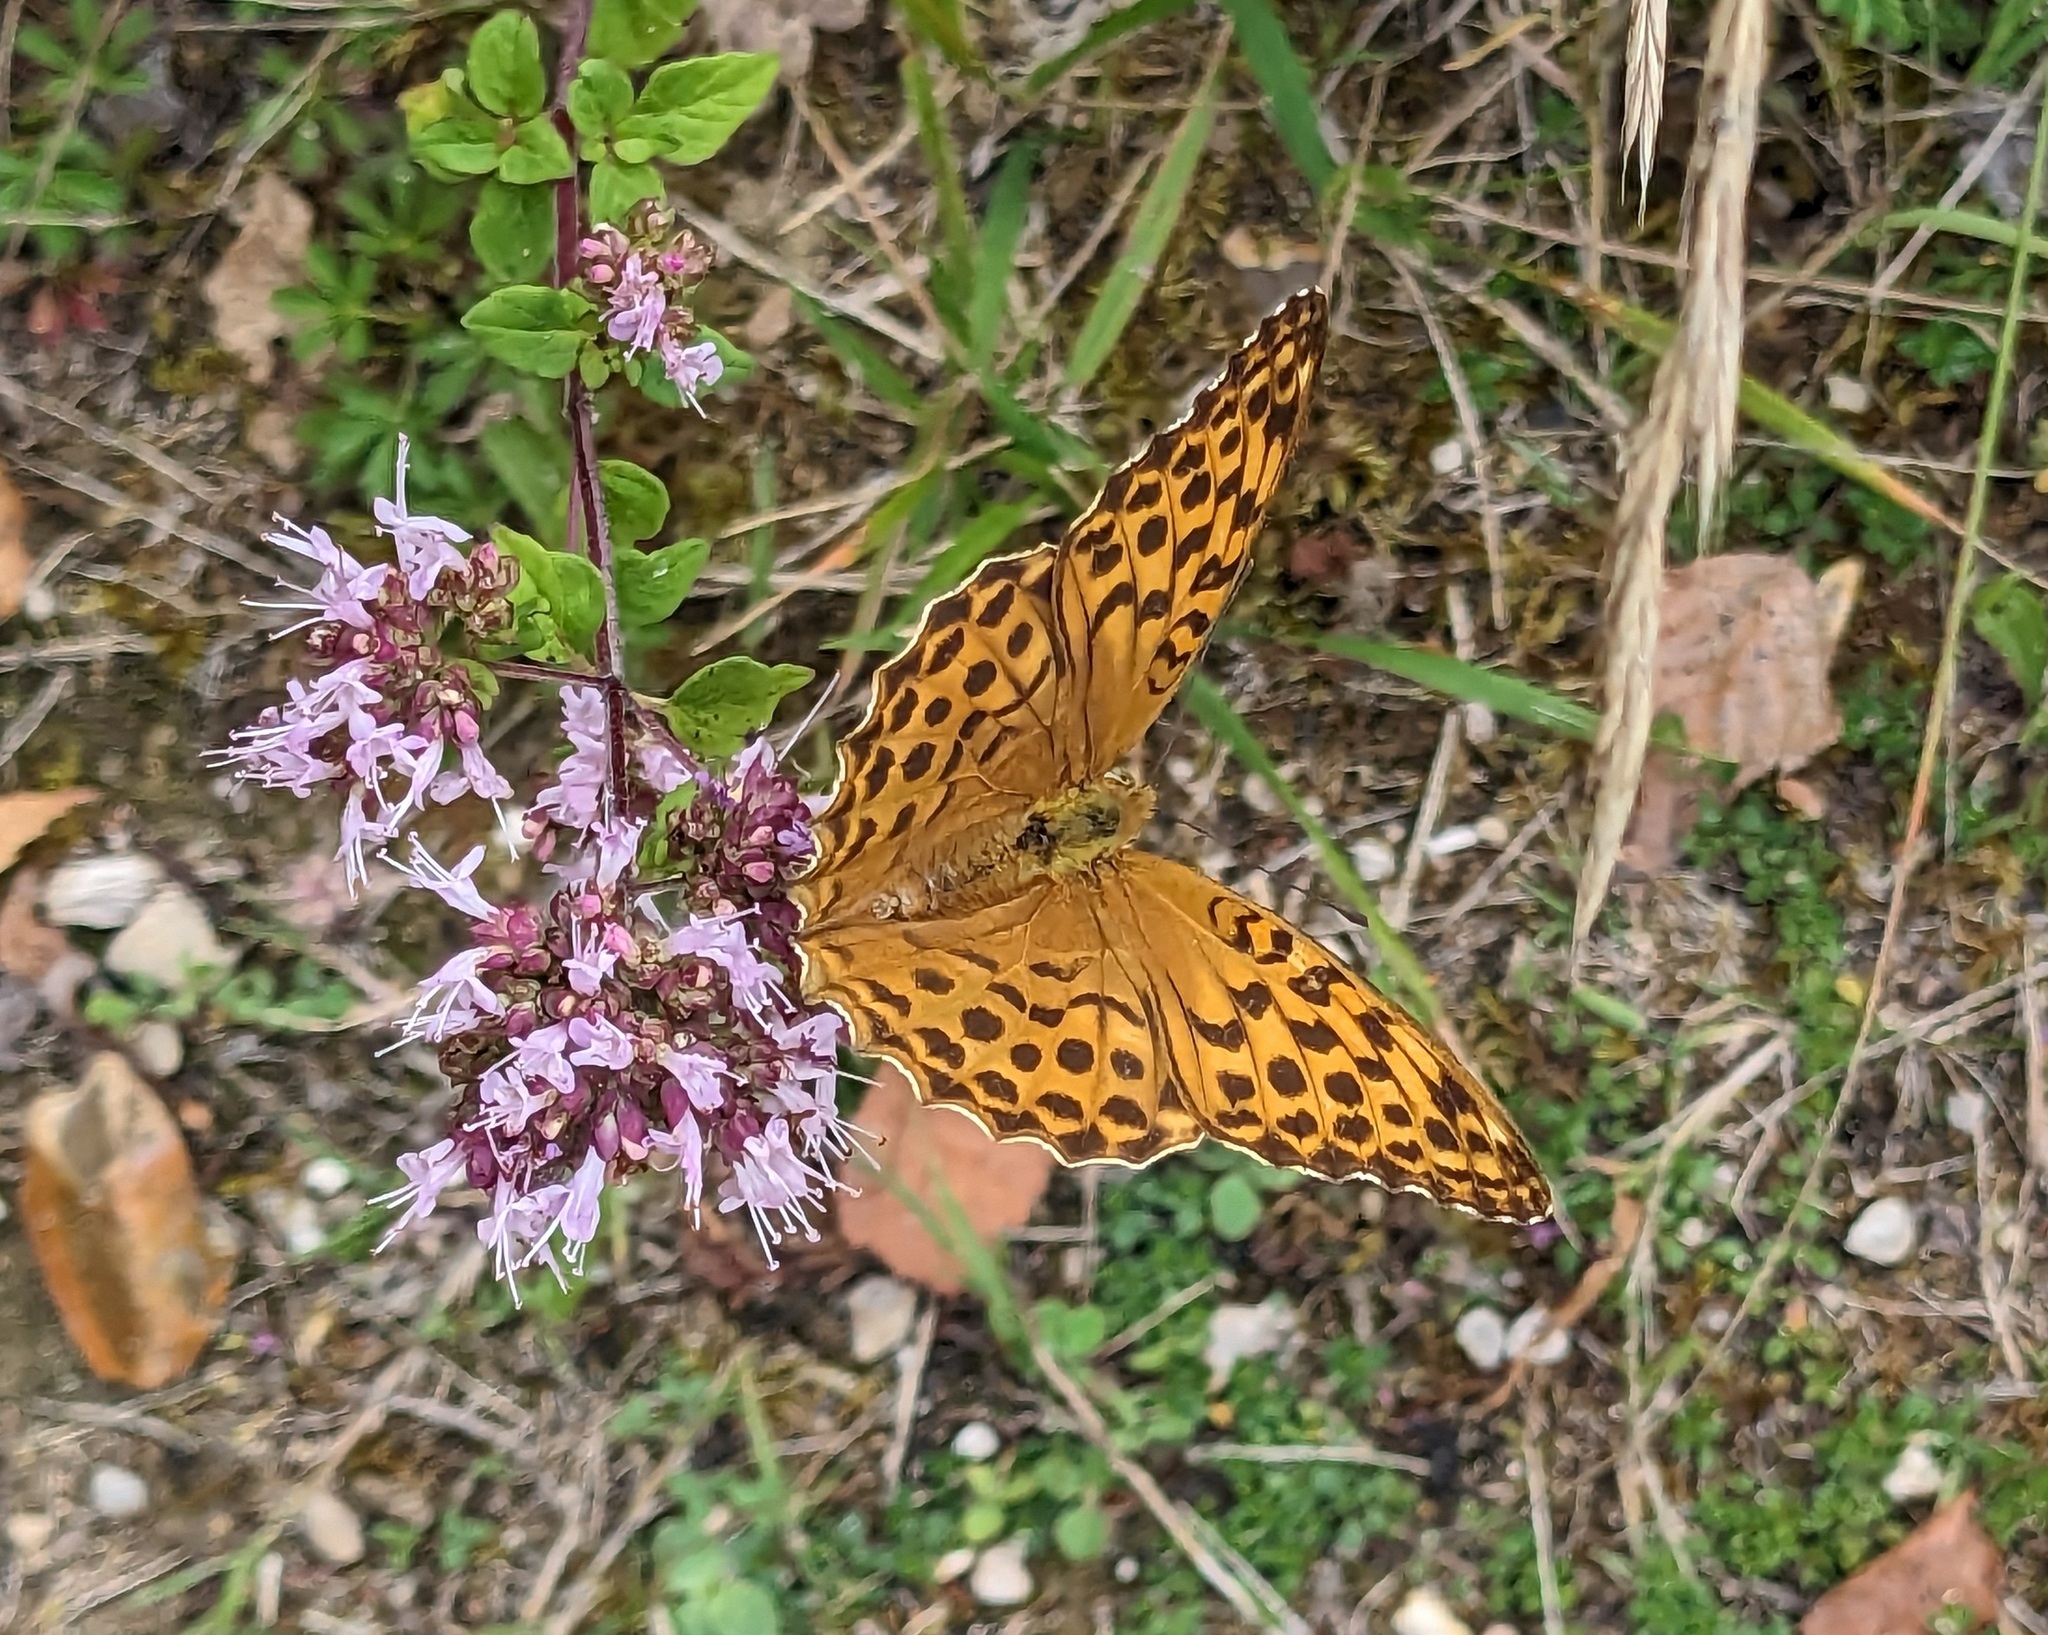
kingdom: Animalia
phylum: Arthropoda
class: Insecta
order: Lepidoptera
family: Nymphalidae
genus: Argynnis
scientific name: Argynnis paphia
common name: Silver-washed fritillary
